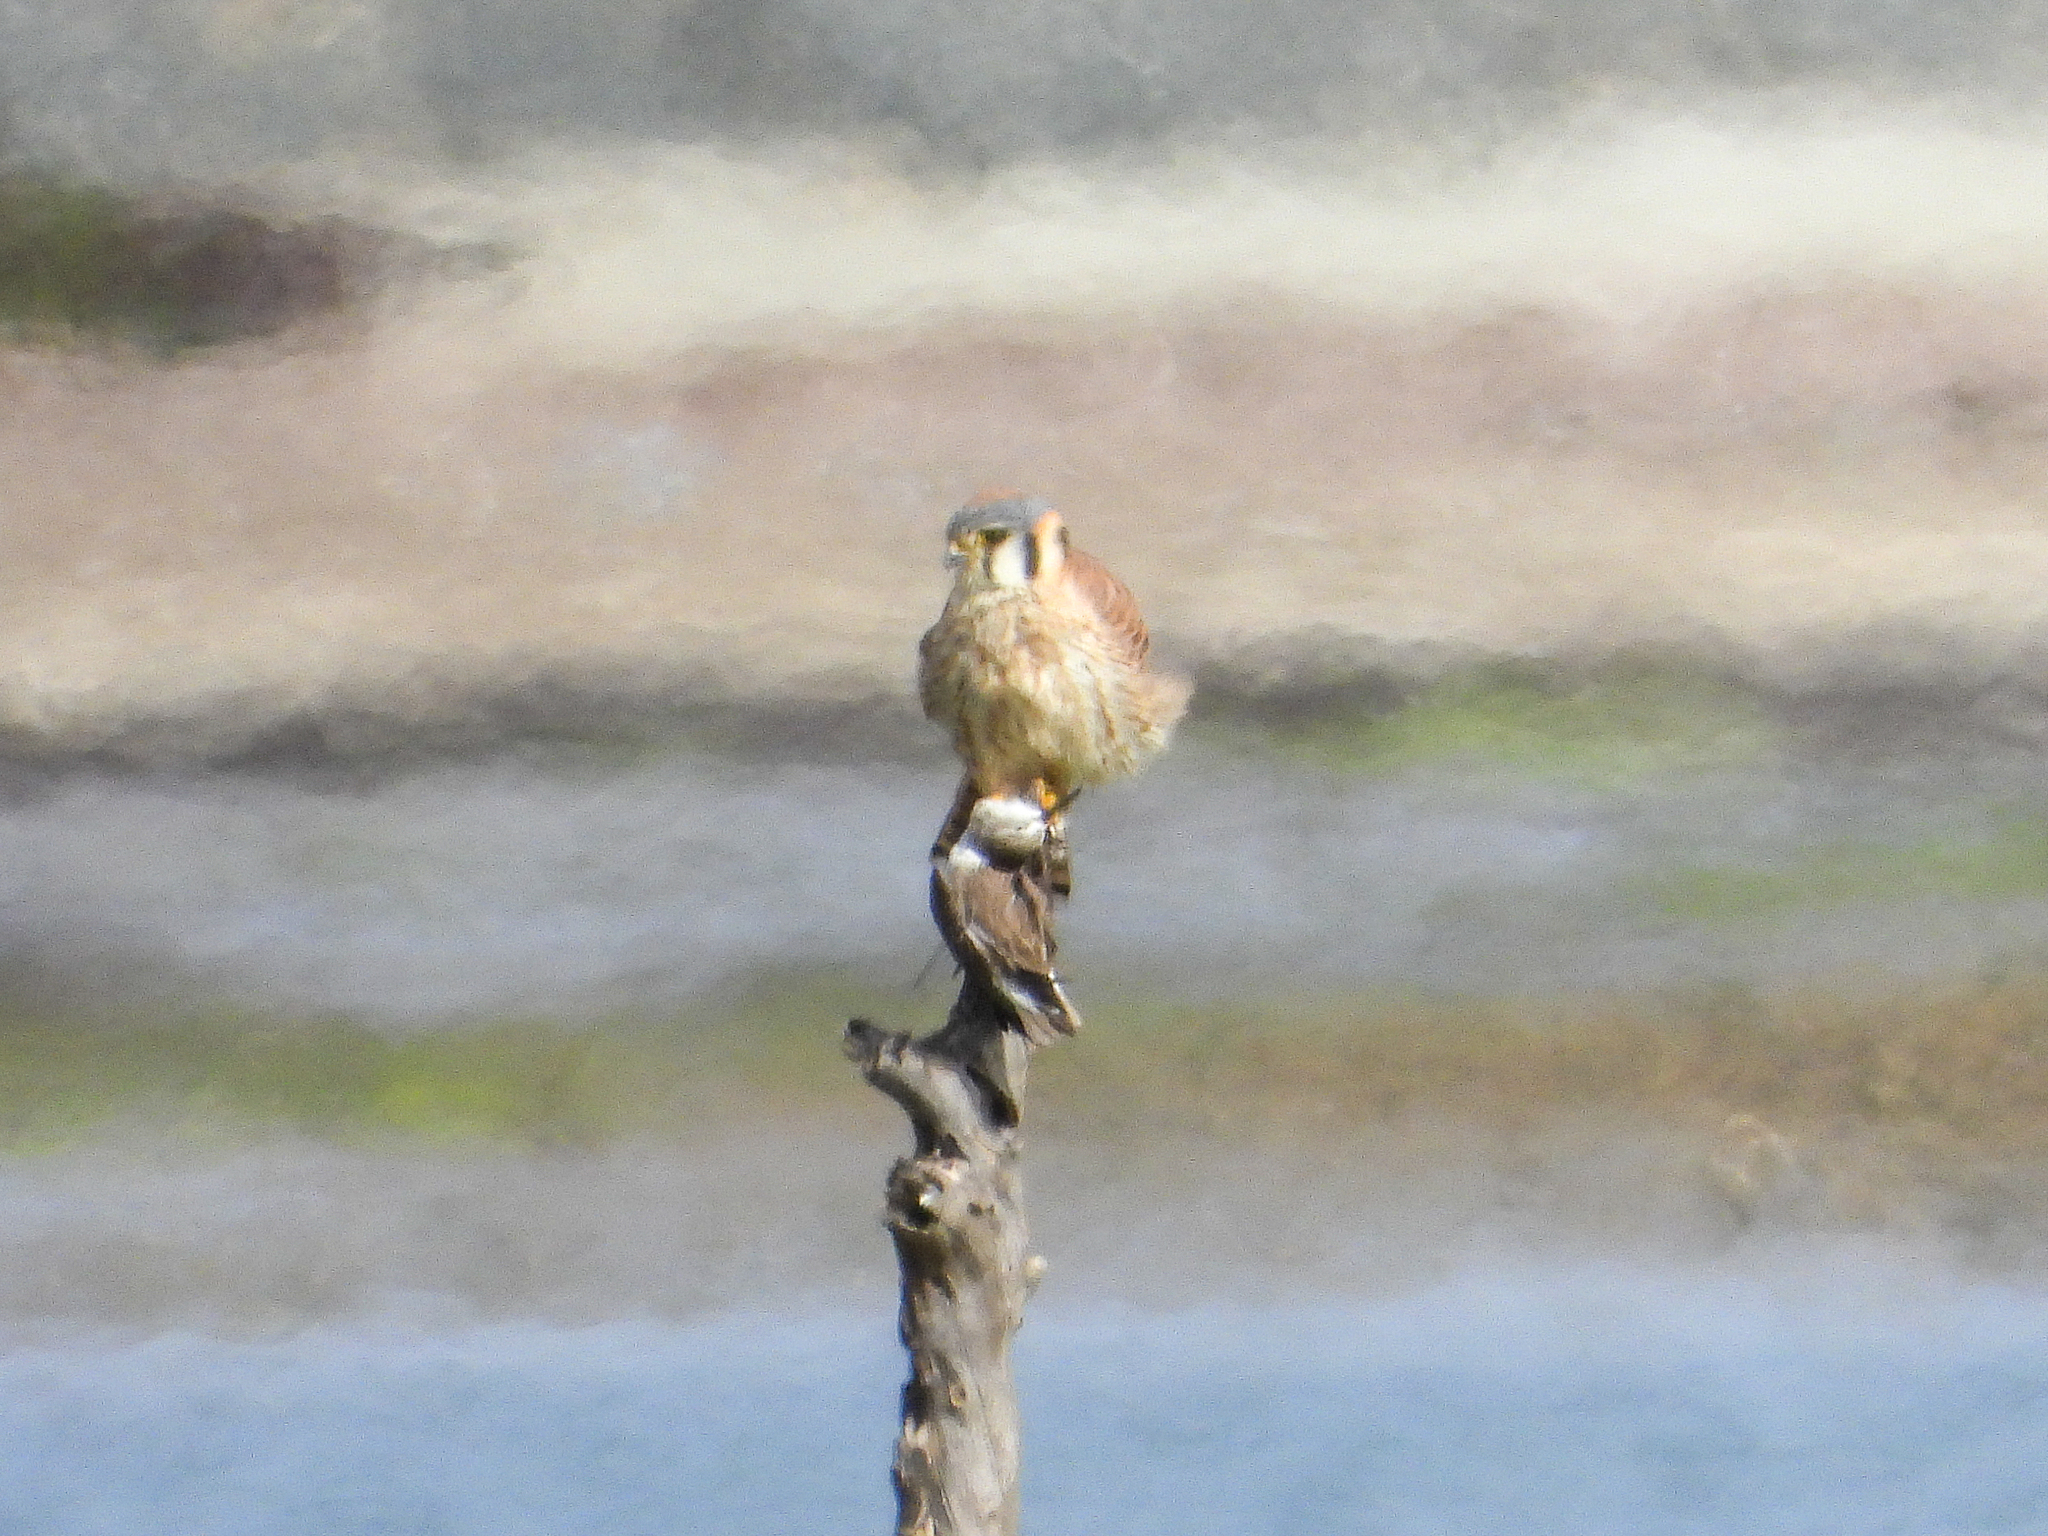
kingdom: Animalia
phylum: Chordata
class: Aves
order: Charadriiformes
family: Scolopacidae
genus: Calidris
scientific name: Calidris mauri
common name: Western sandpiper
